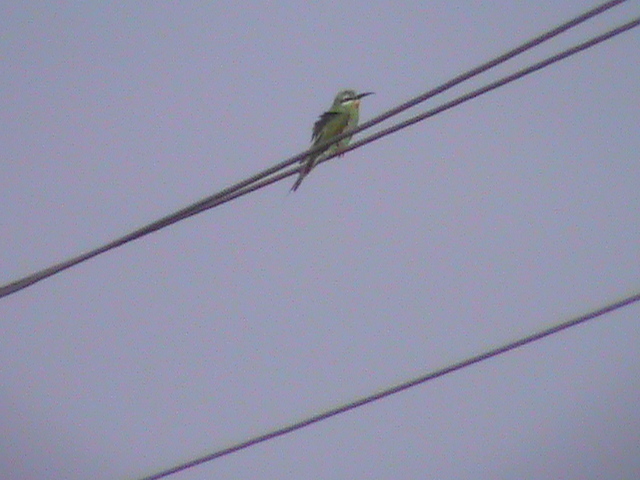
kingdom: Animalia
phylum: Chordata
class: Aves
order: Coraciiformes
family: Meropidae
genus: Merops
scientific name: Merops philippinus
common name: Blue-tailed bee-eater
